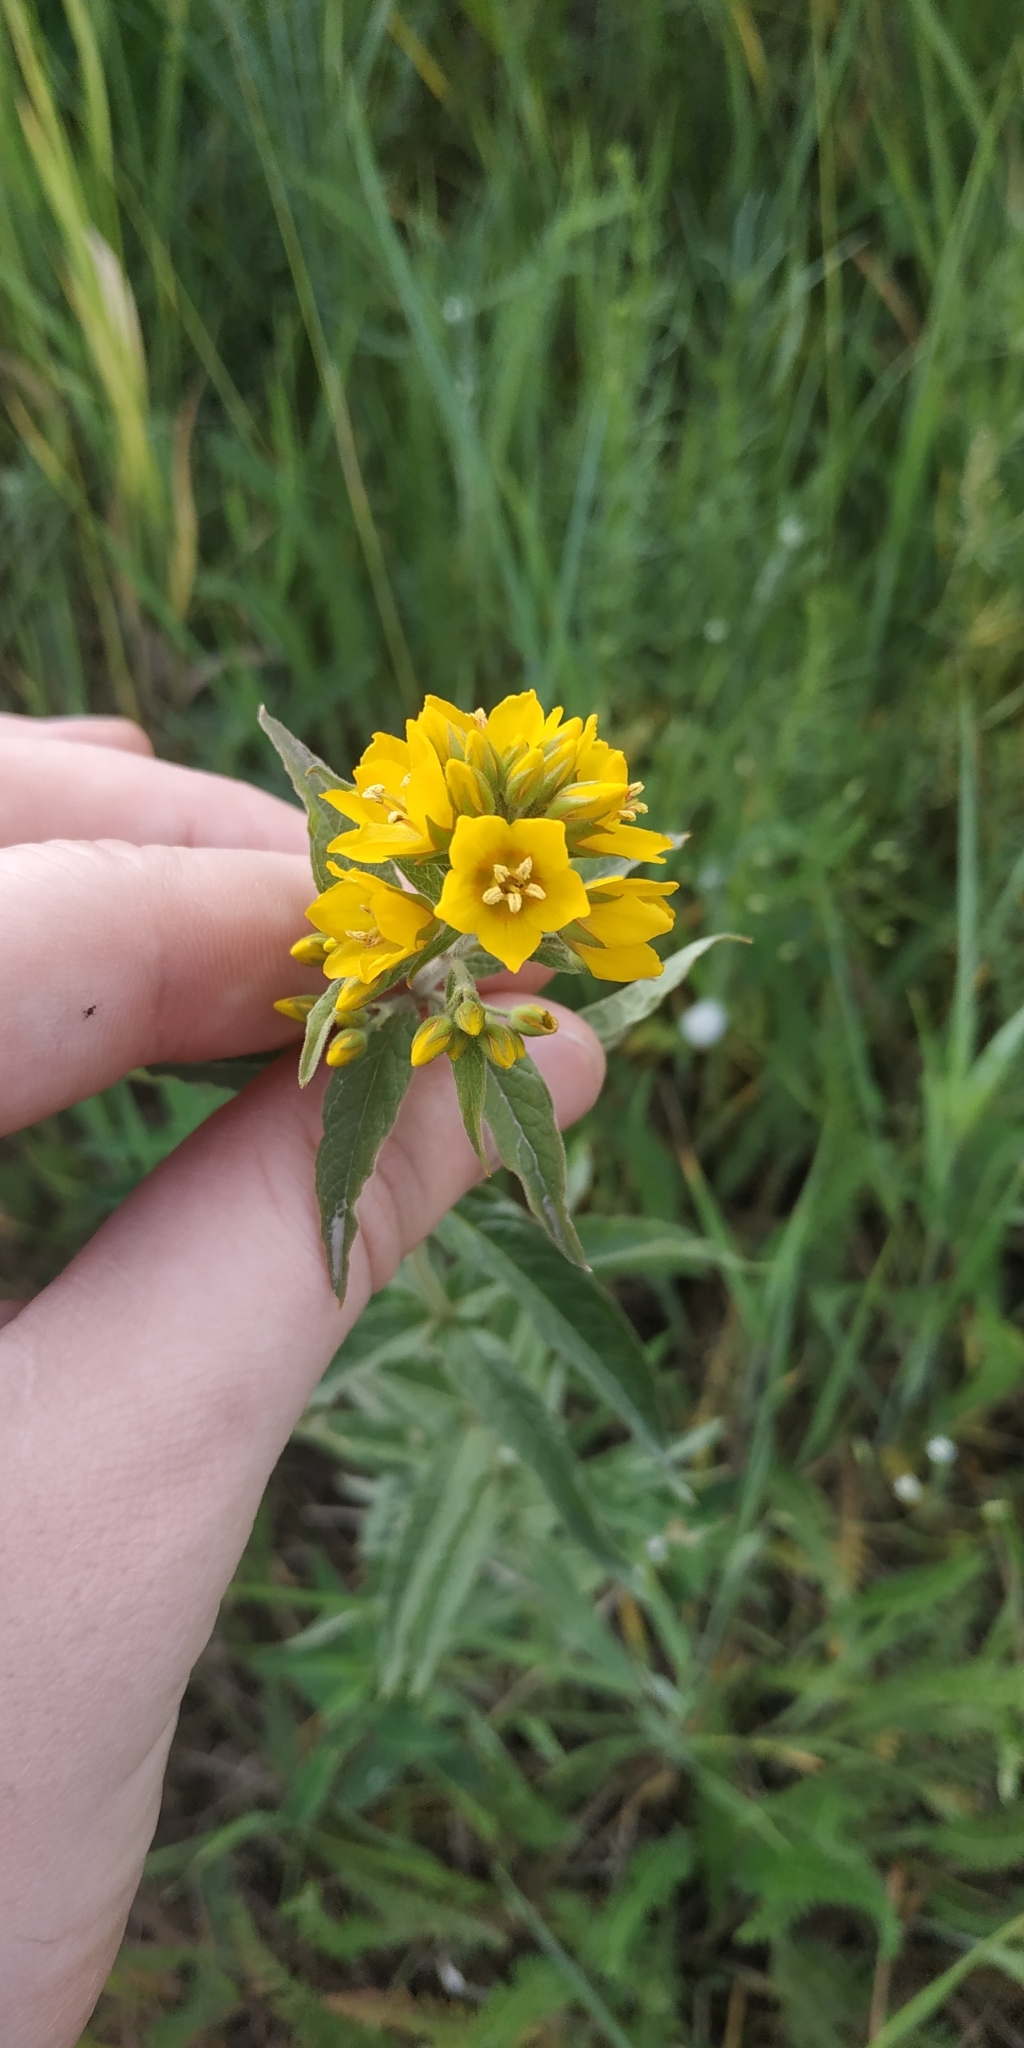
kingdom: Plantae
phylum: Tracheophyta
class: Magnoliopsida
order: Ericales
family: Primulaceae
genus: Lysimachia
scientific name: Lysimachia vulgaris
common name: Yellow loosestrife
